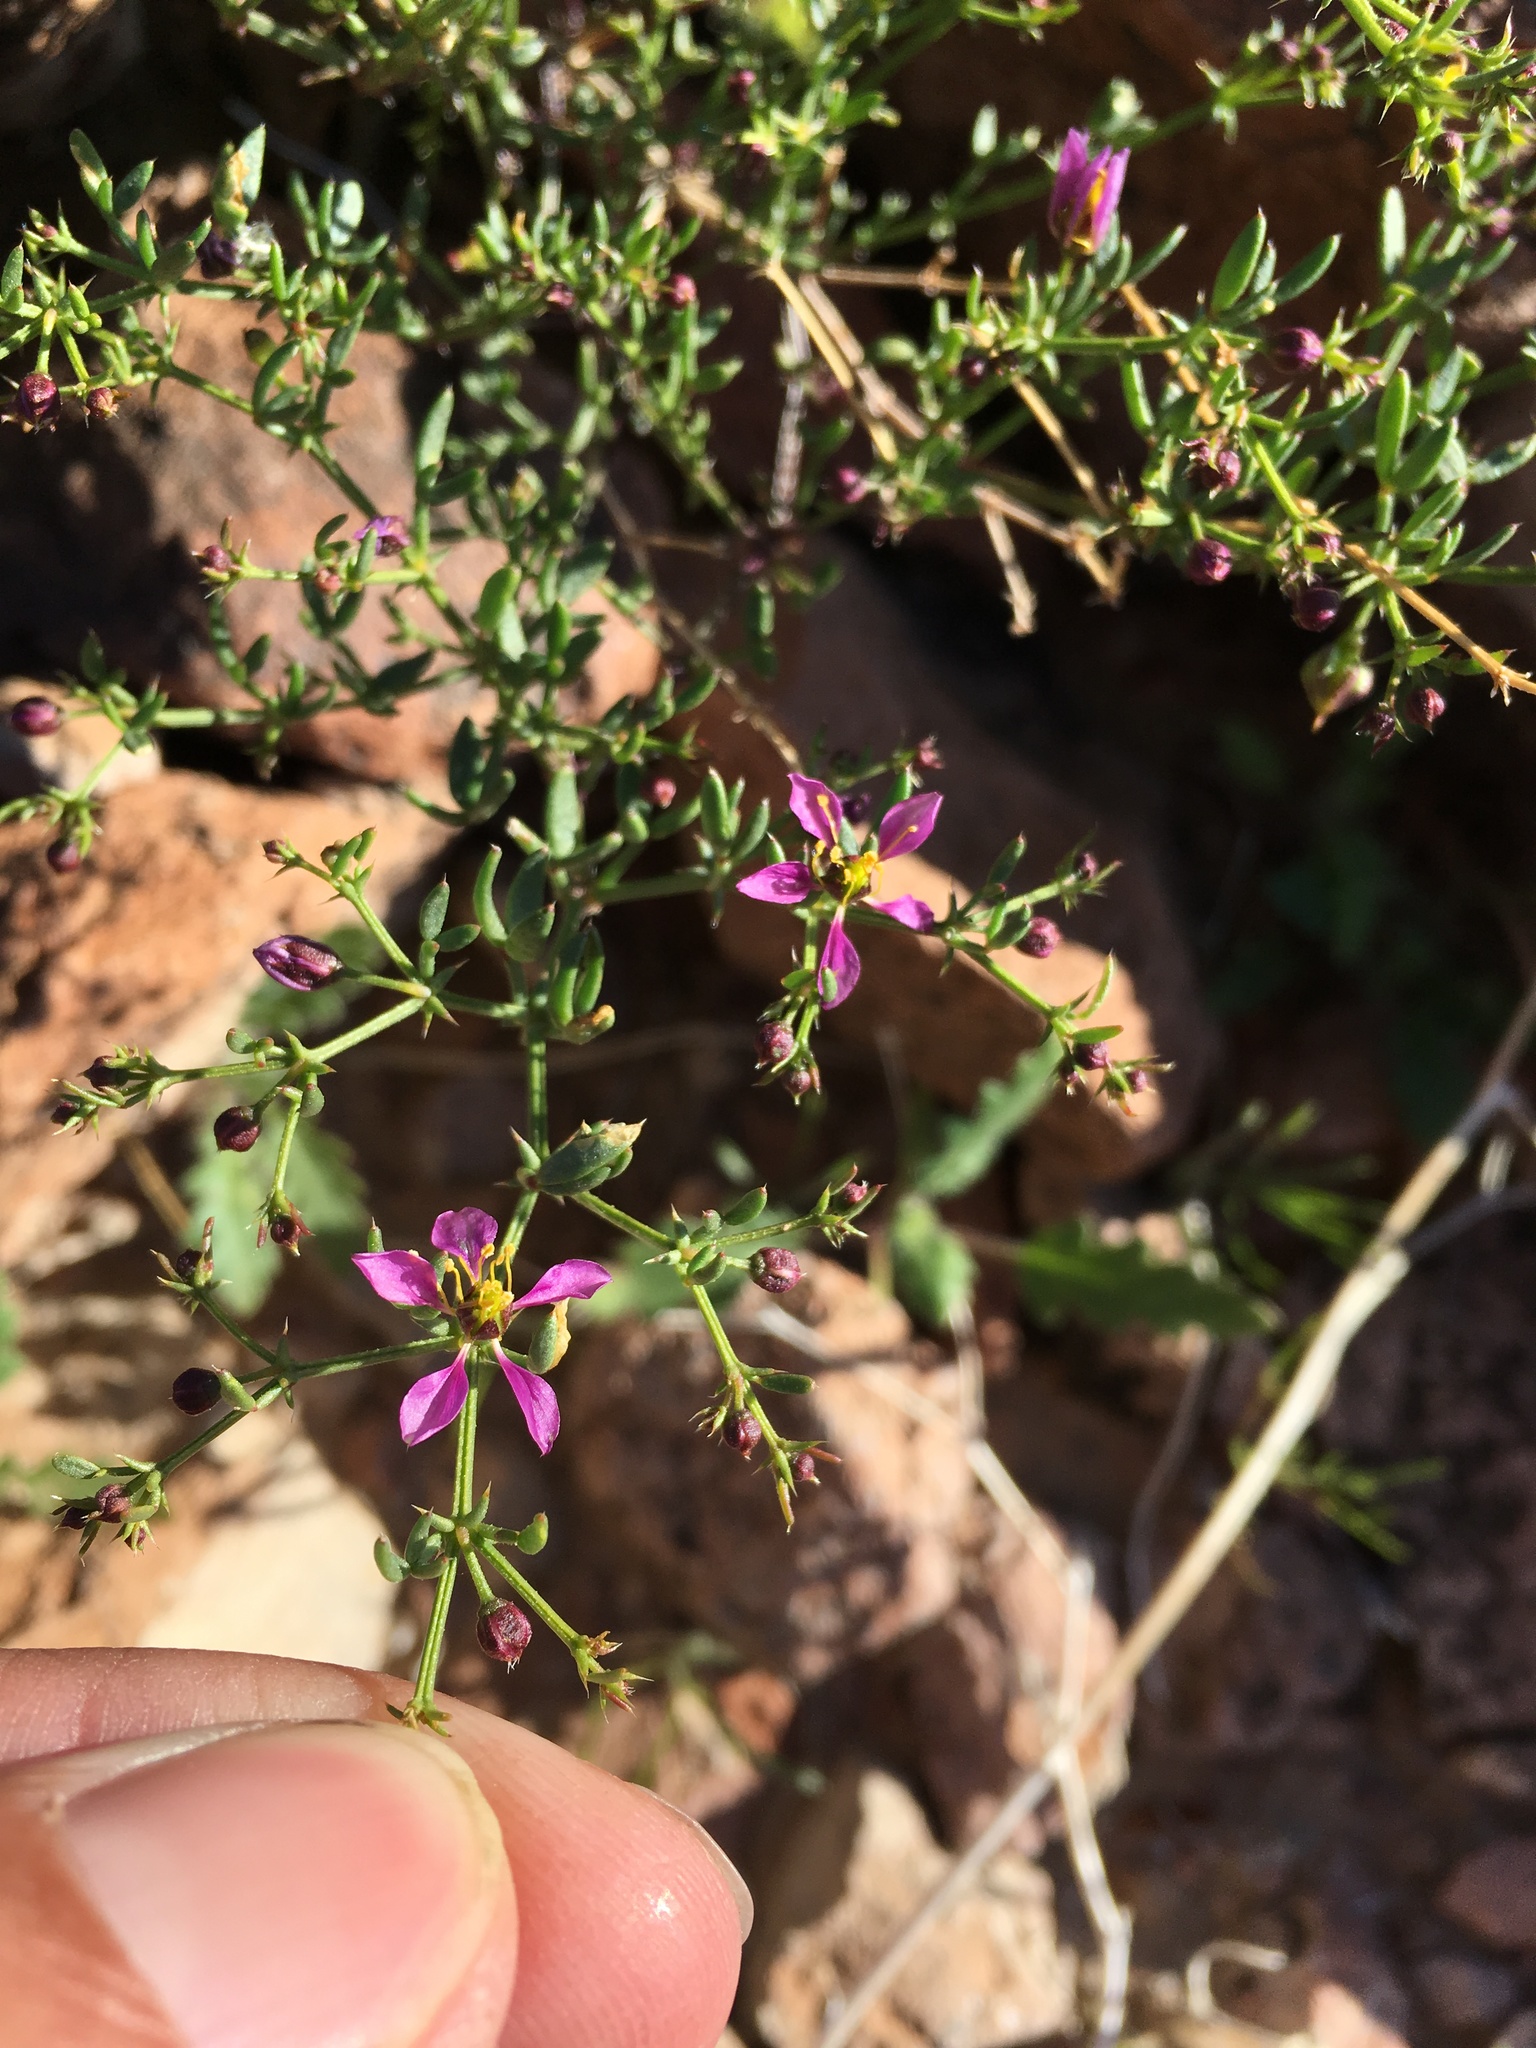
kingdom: Plantae
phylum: Tracheophyta
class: Magnoliopsida
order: Zygophyllales
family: Zygophyllaceae
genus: Fagonia
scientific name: Fagonia laevis
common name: California fagonbush
